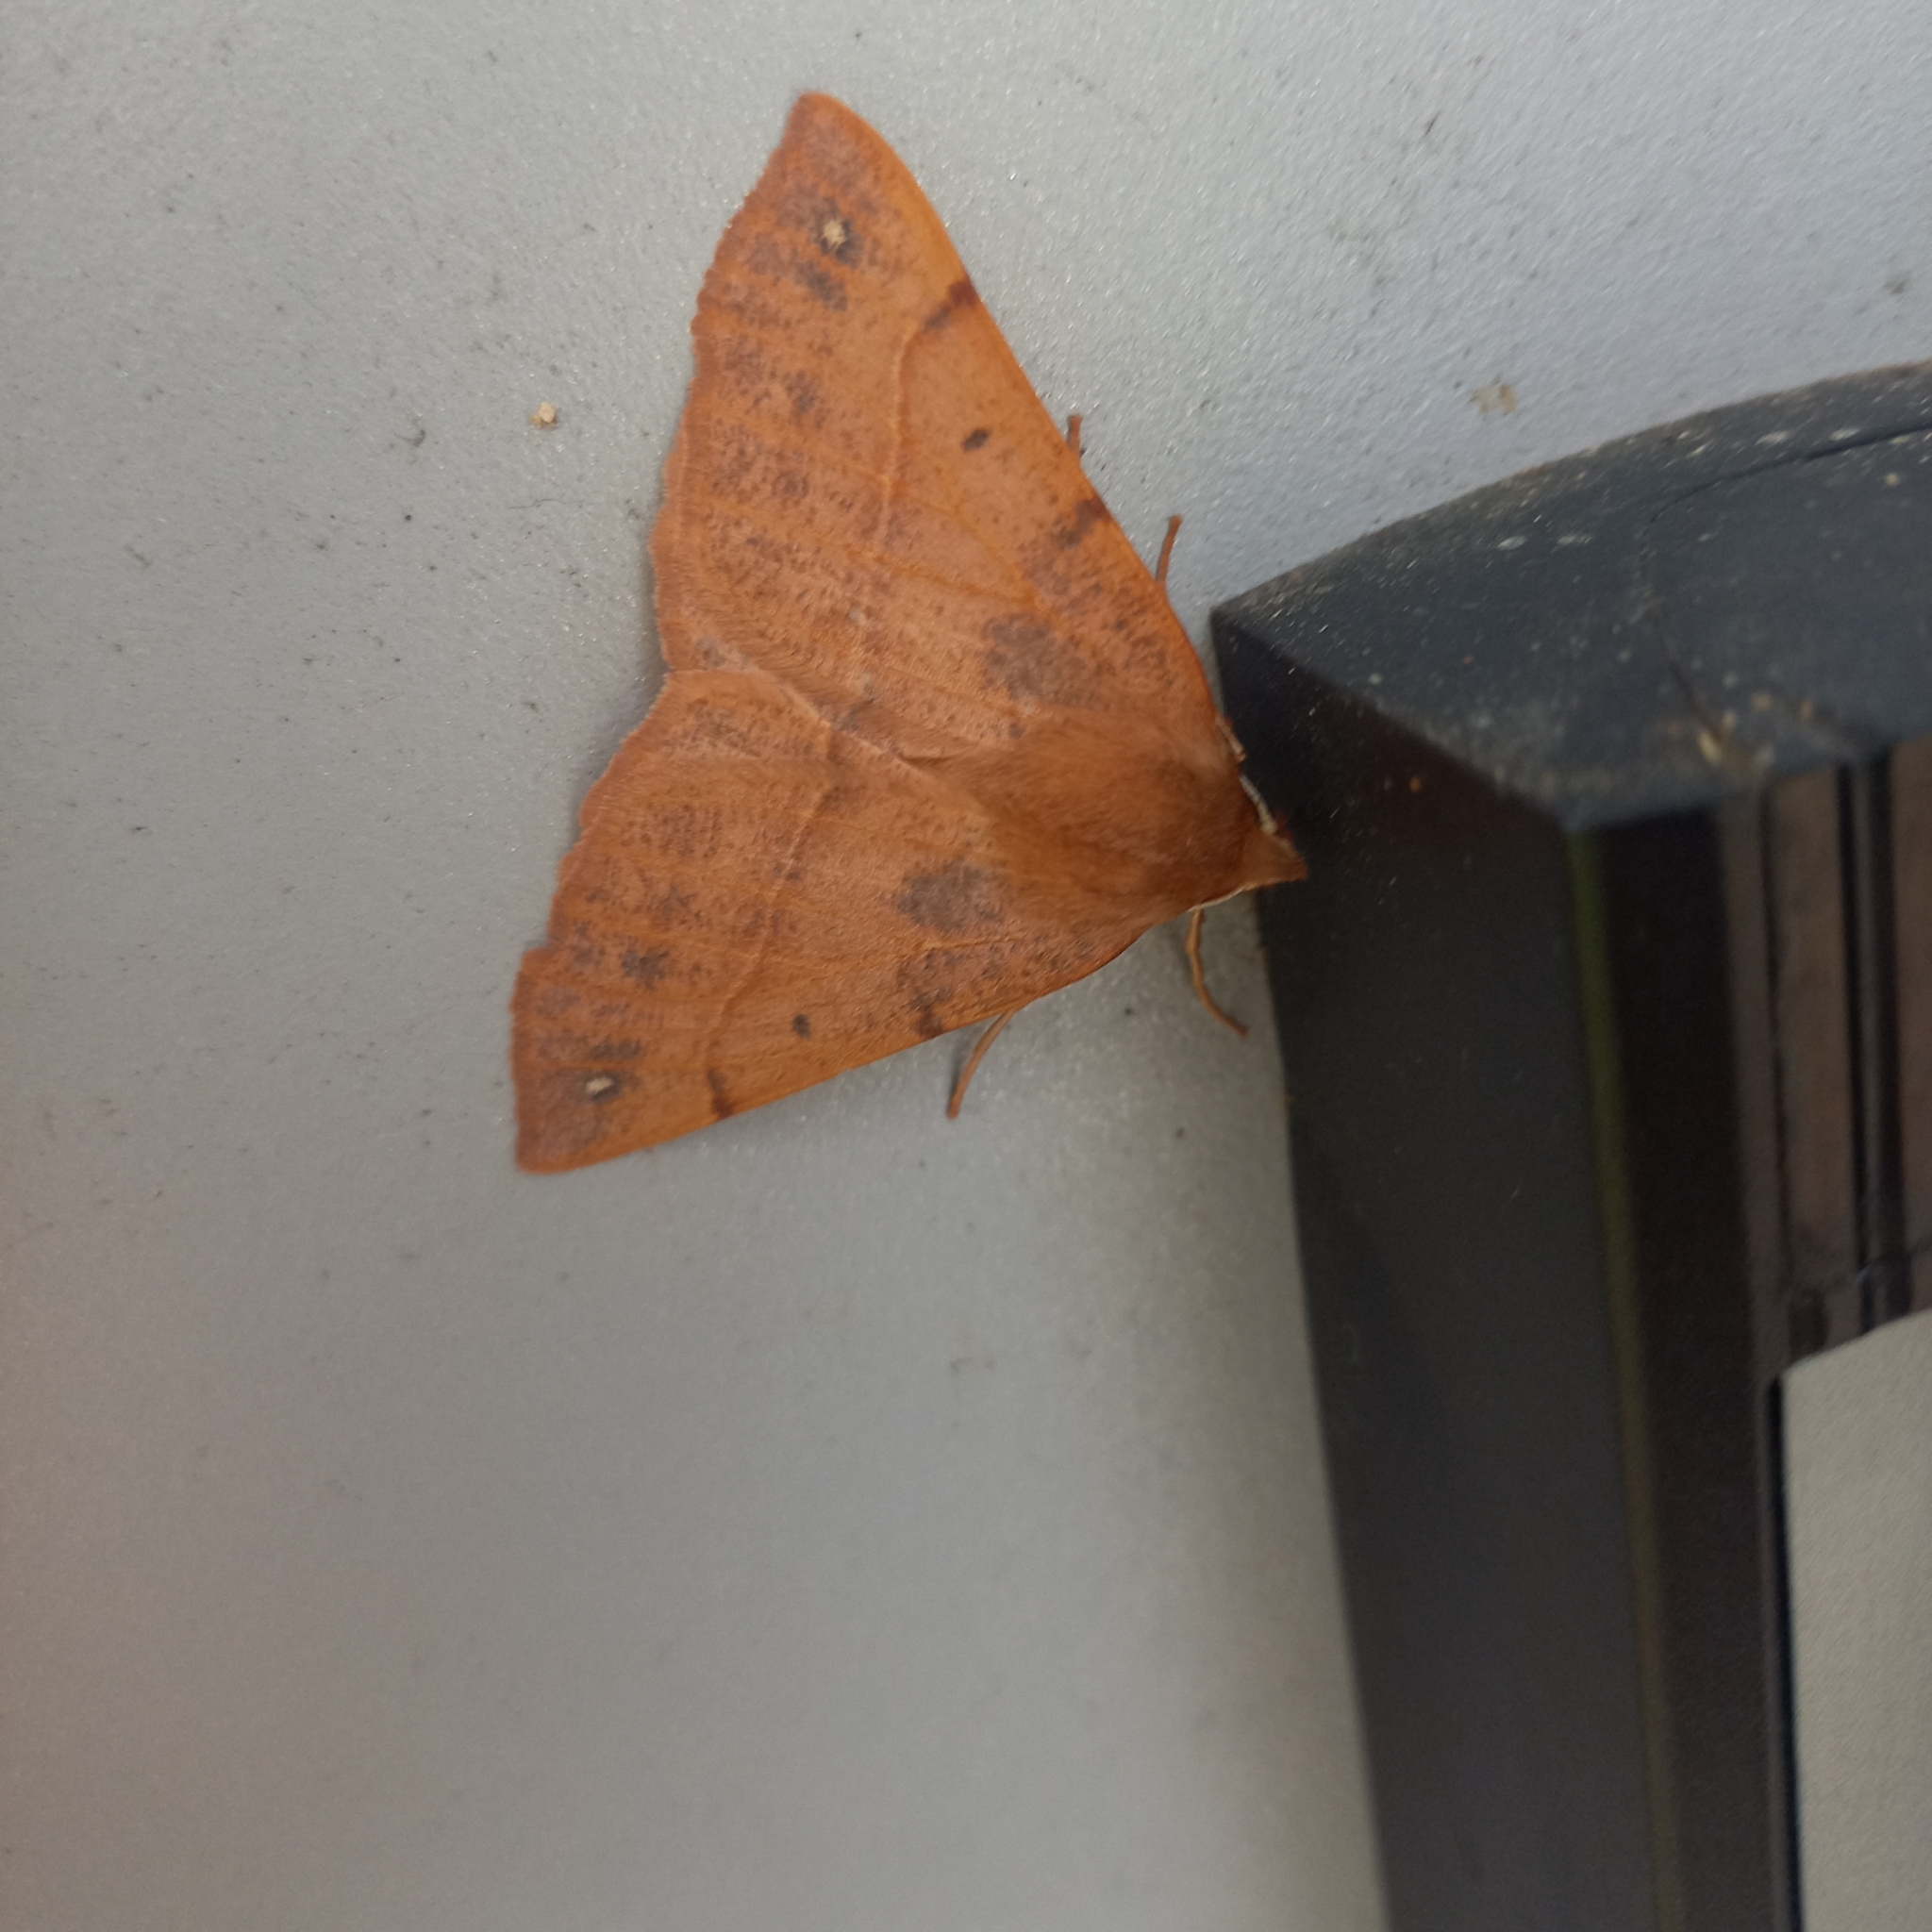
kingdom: Animalia
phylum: Arthropoda
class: Insecta
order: Lepidoptera
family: Geometridae
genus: Colotois
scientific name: Colotois pennaria
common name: Feathered thorn
